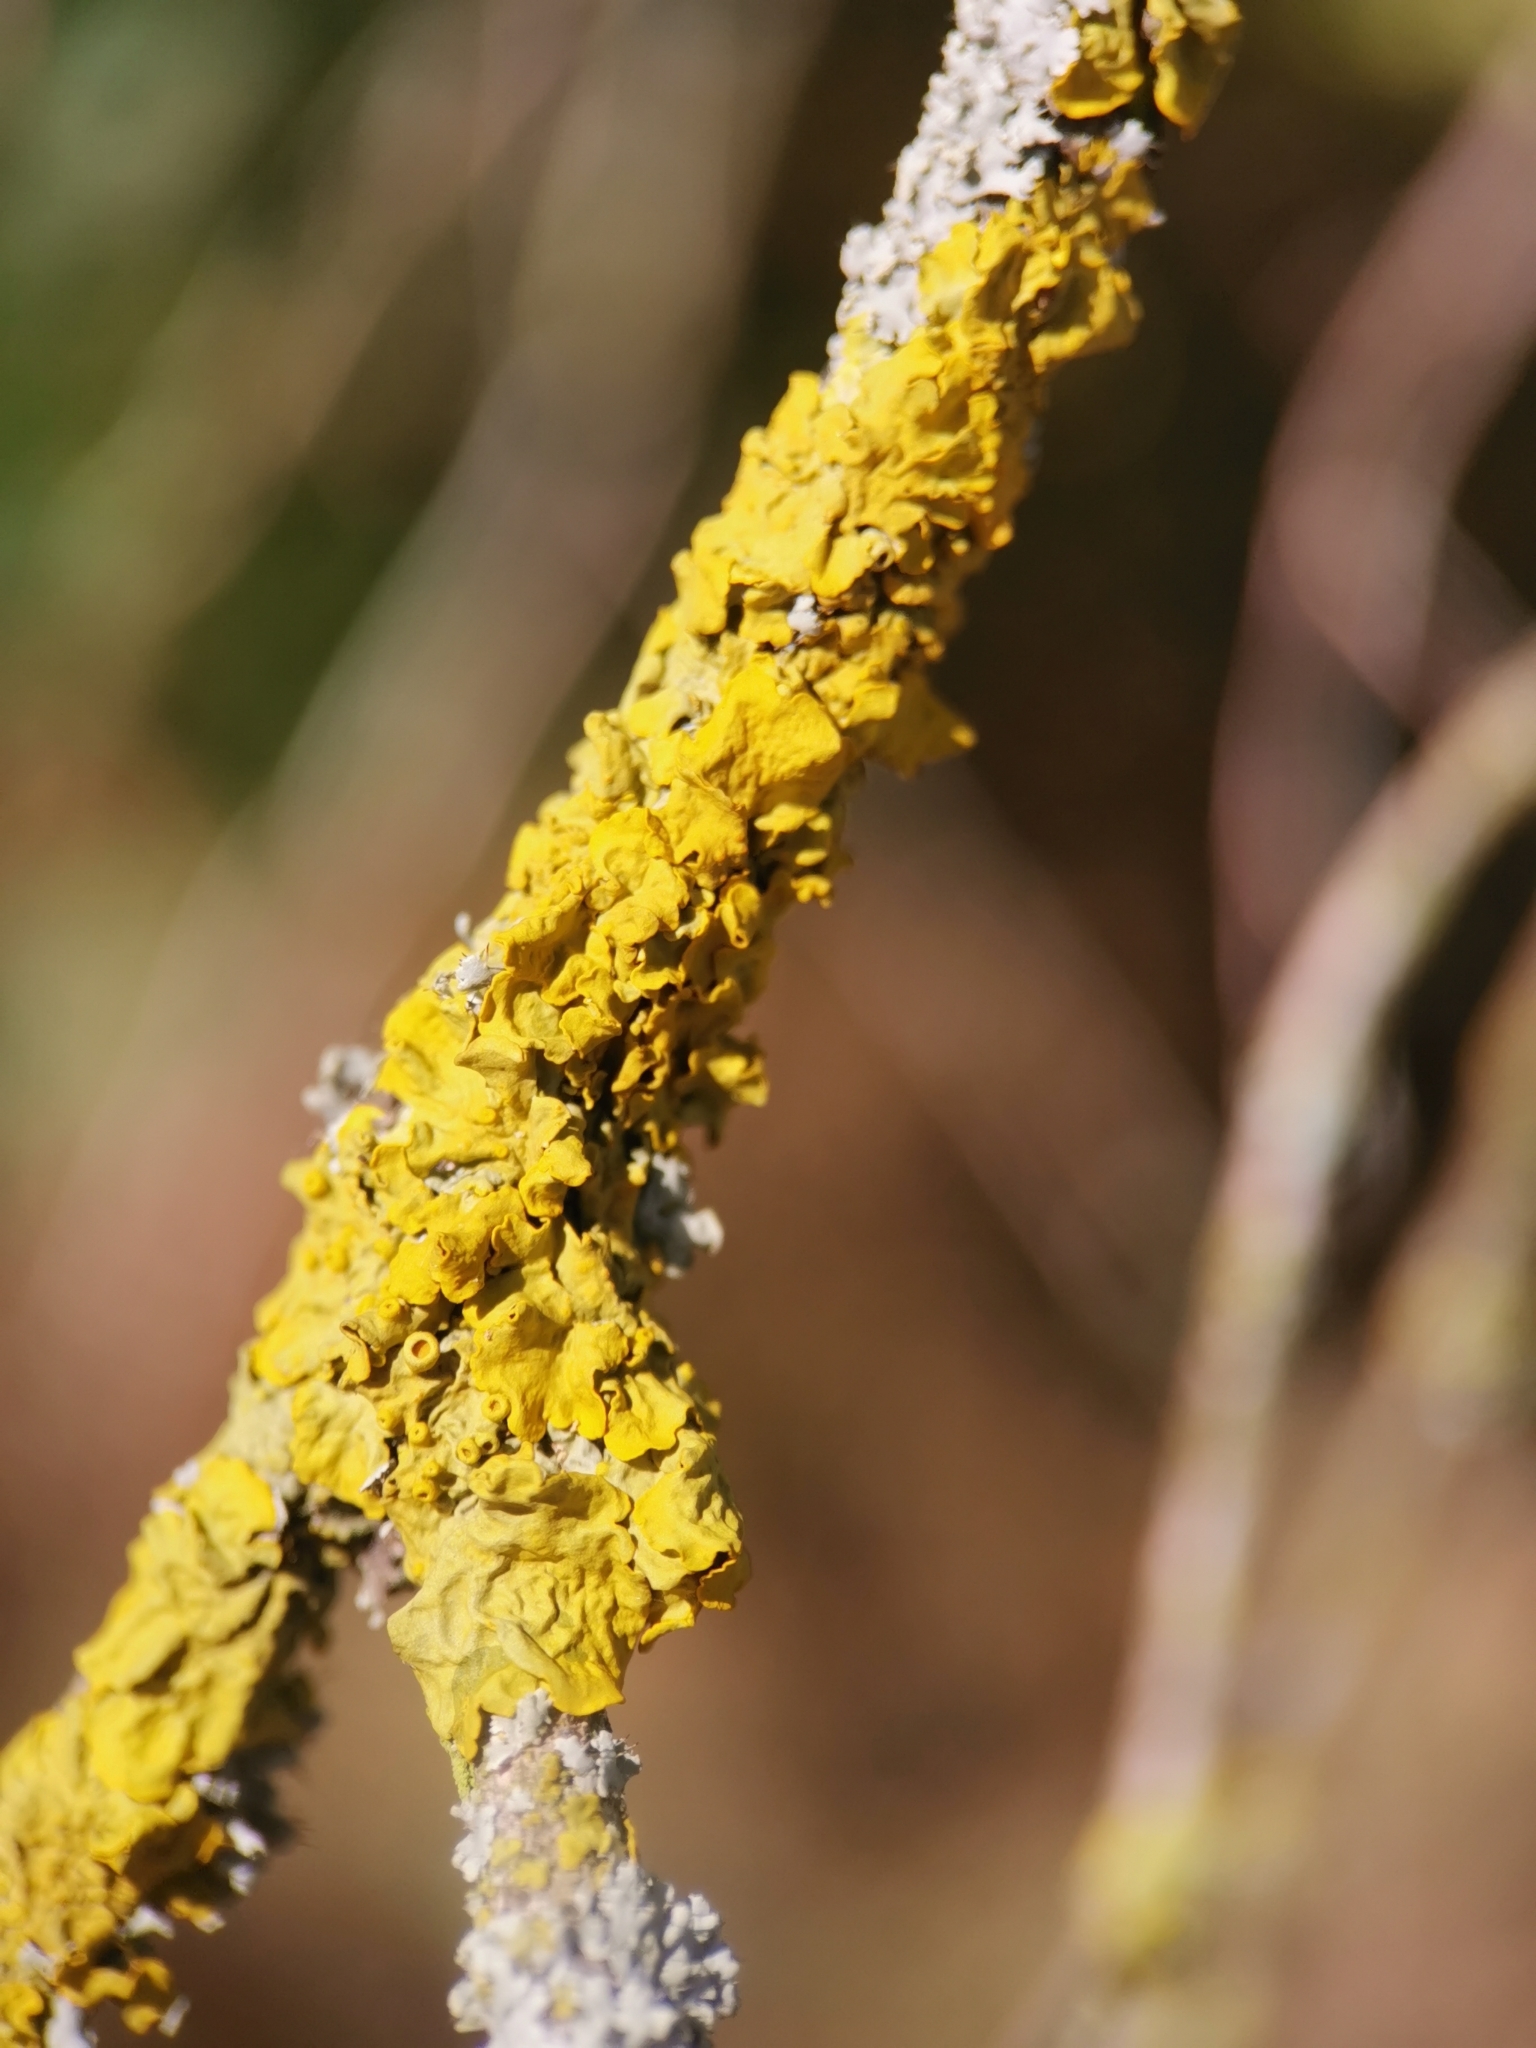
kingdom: Fungi
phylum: Ascomycota
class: Lecanoromycetes
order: Teloschistales
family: Teloschistaceae
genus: Xanthoria
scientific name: Xanthoria parietina
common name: Common orange lichen
